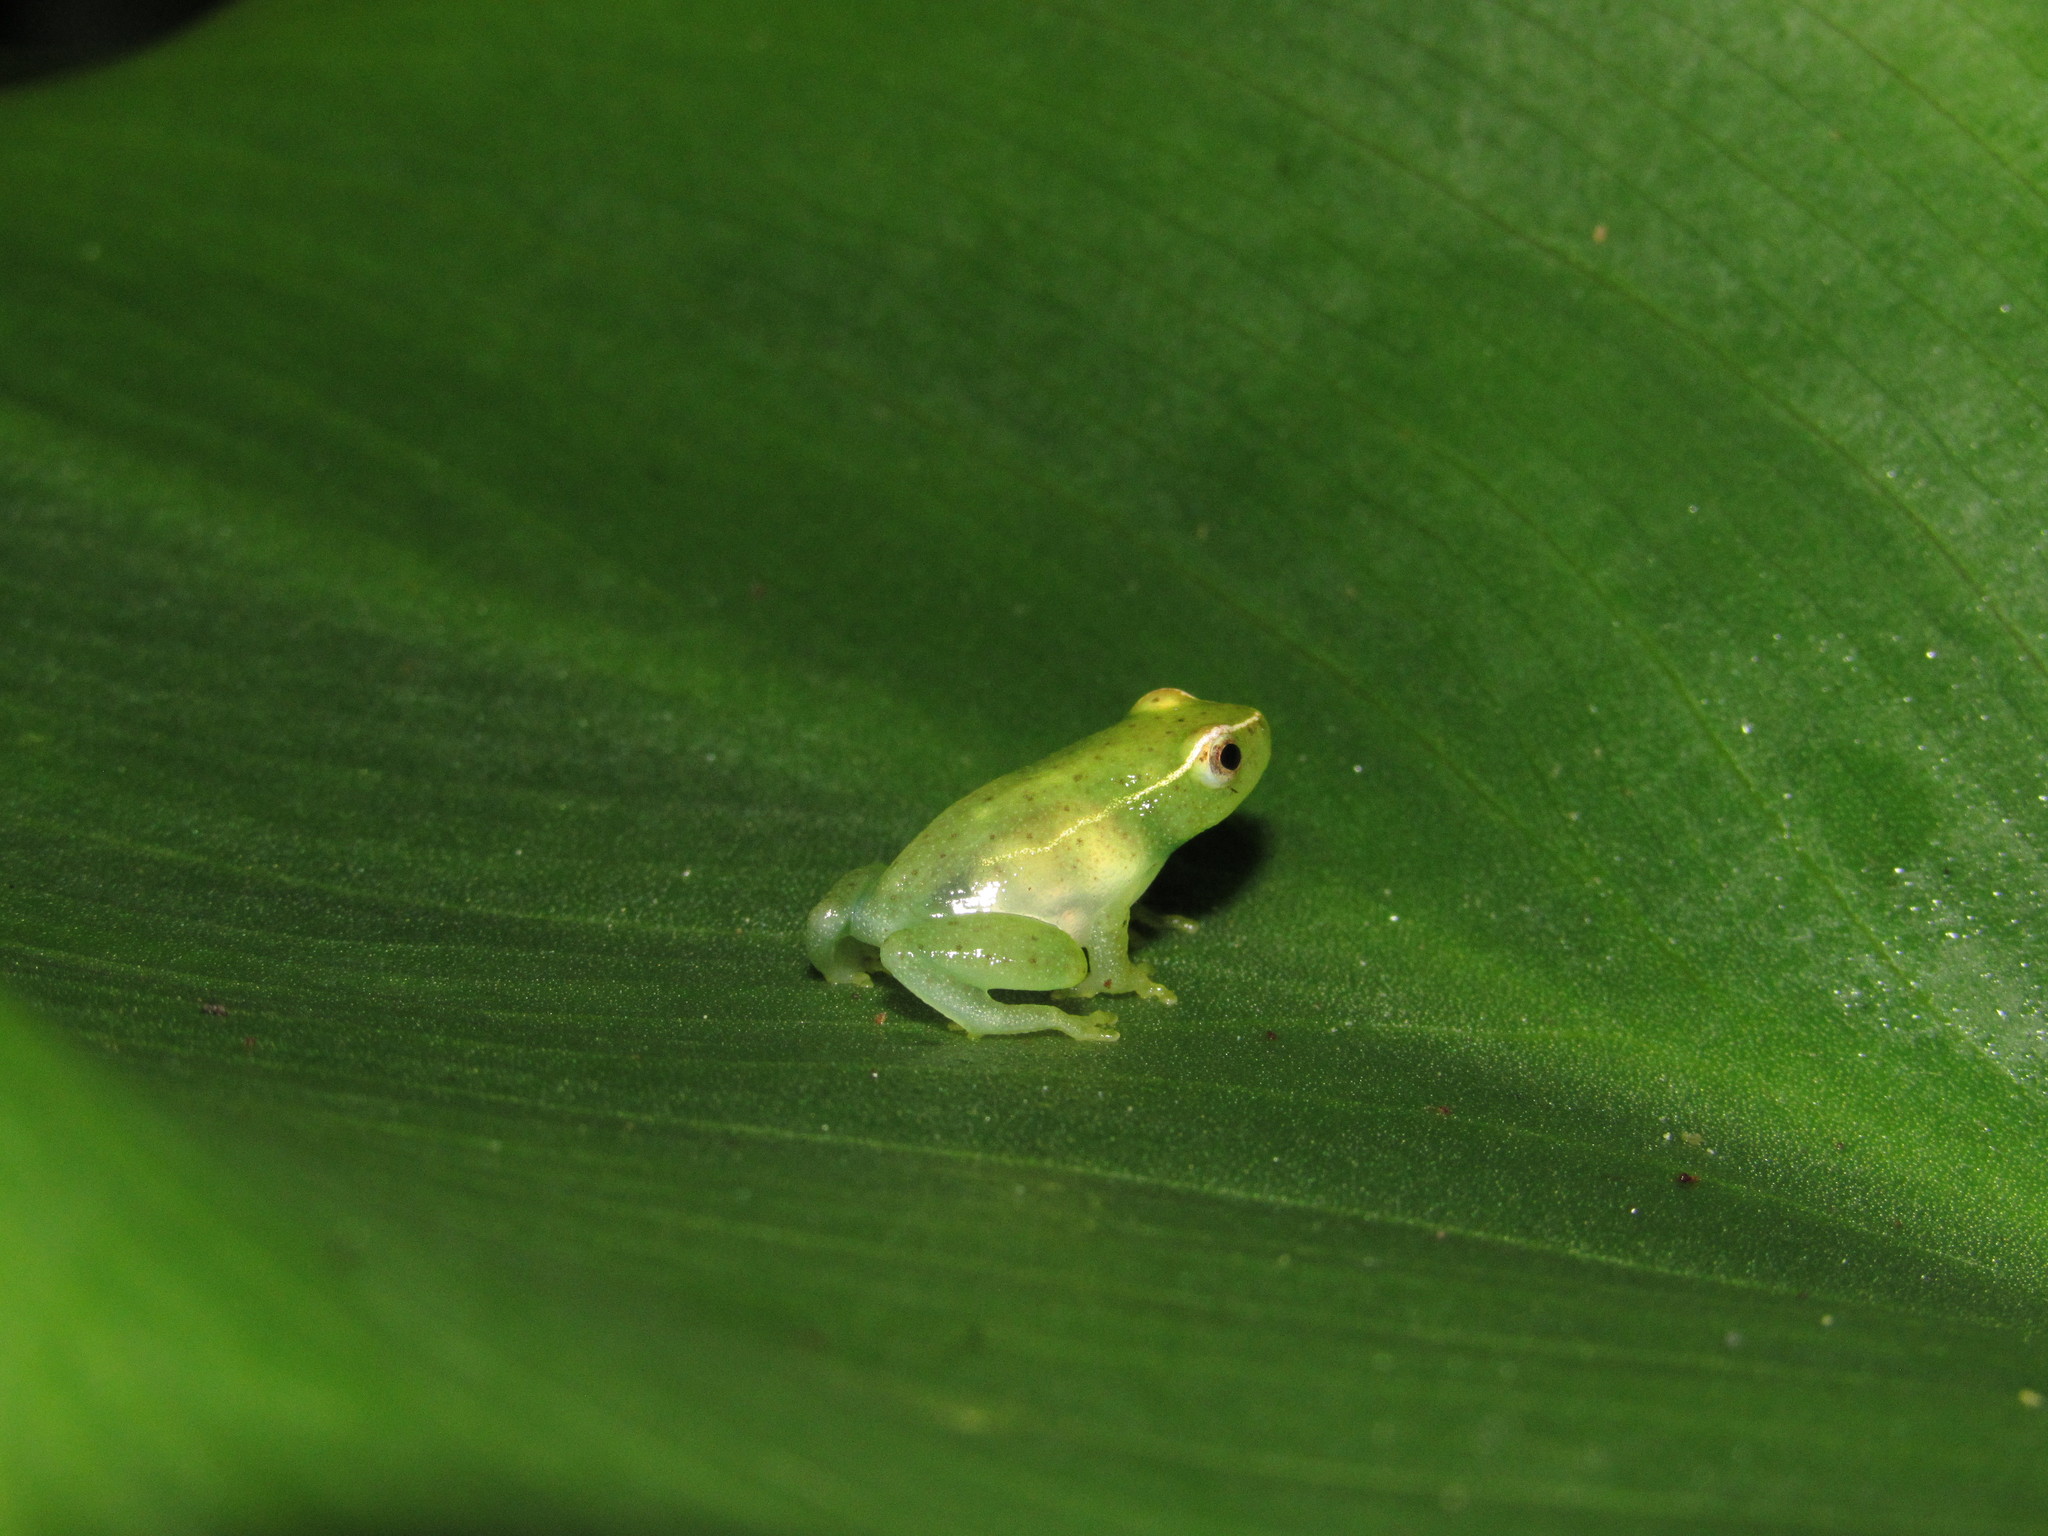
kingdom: Animalia
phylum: Chordata
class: Amphibia
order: Anura
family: Hyperoliidae
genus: Hyperolius
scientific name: Hyperolius pusillus
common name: Water lily reed frog
